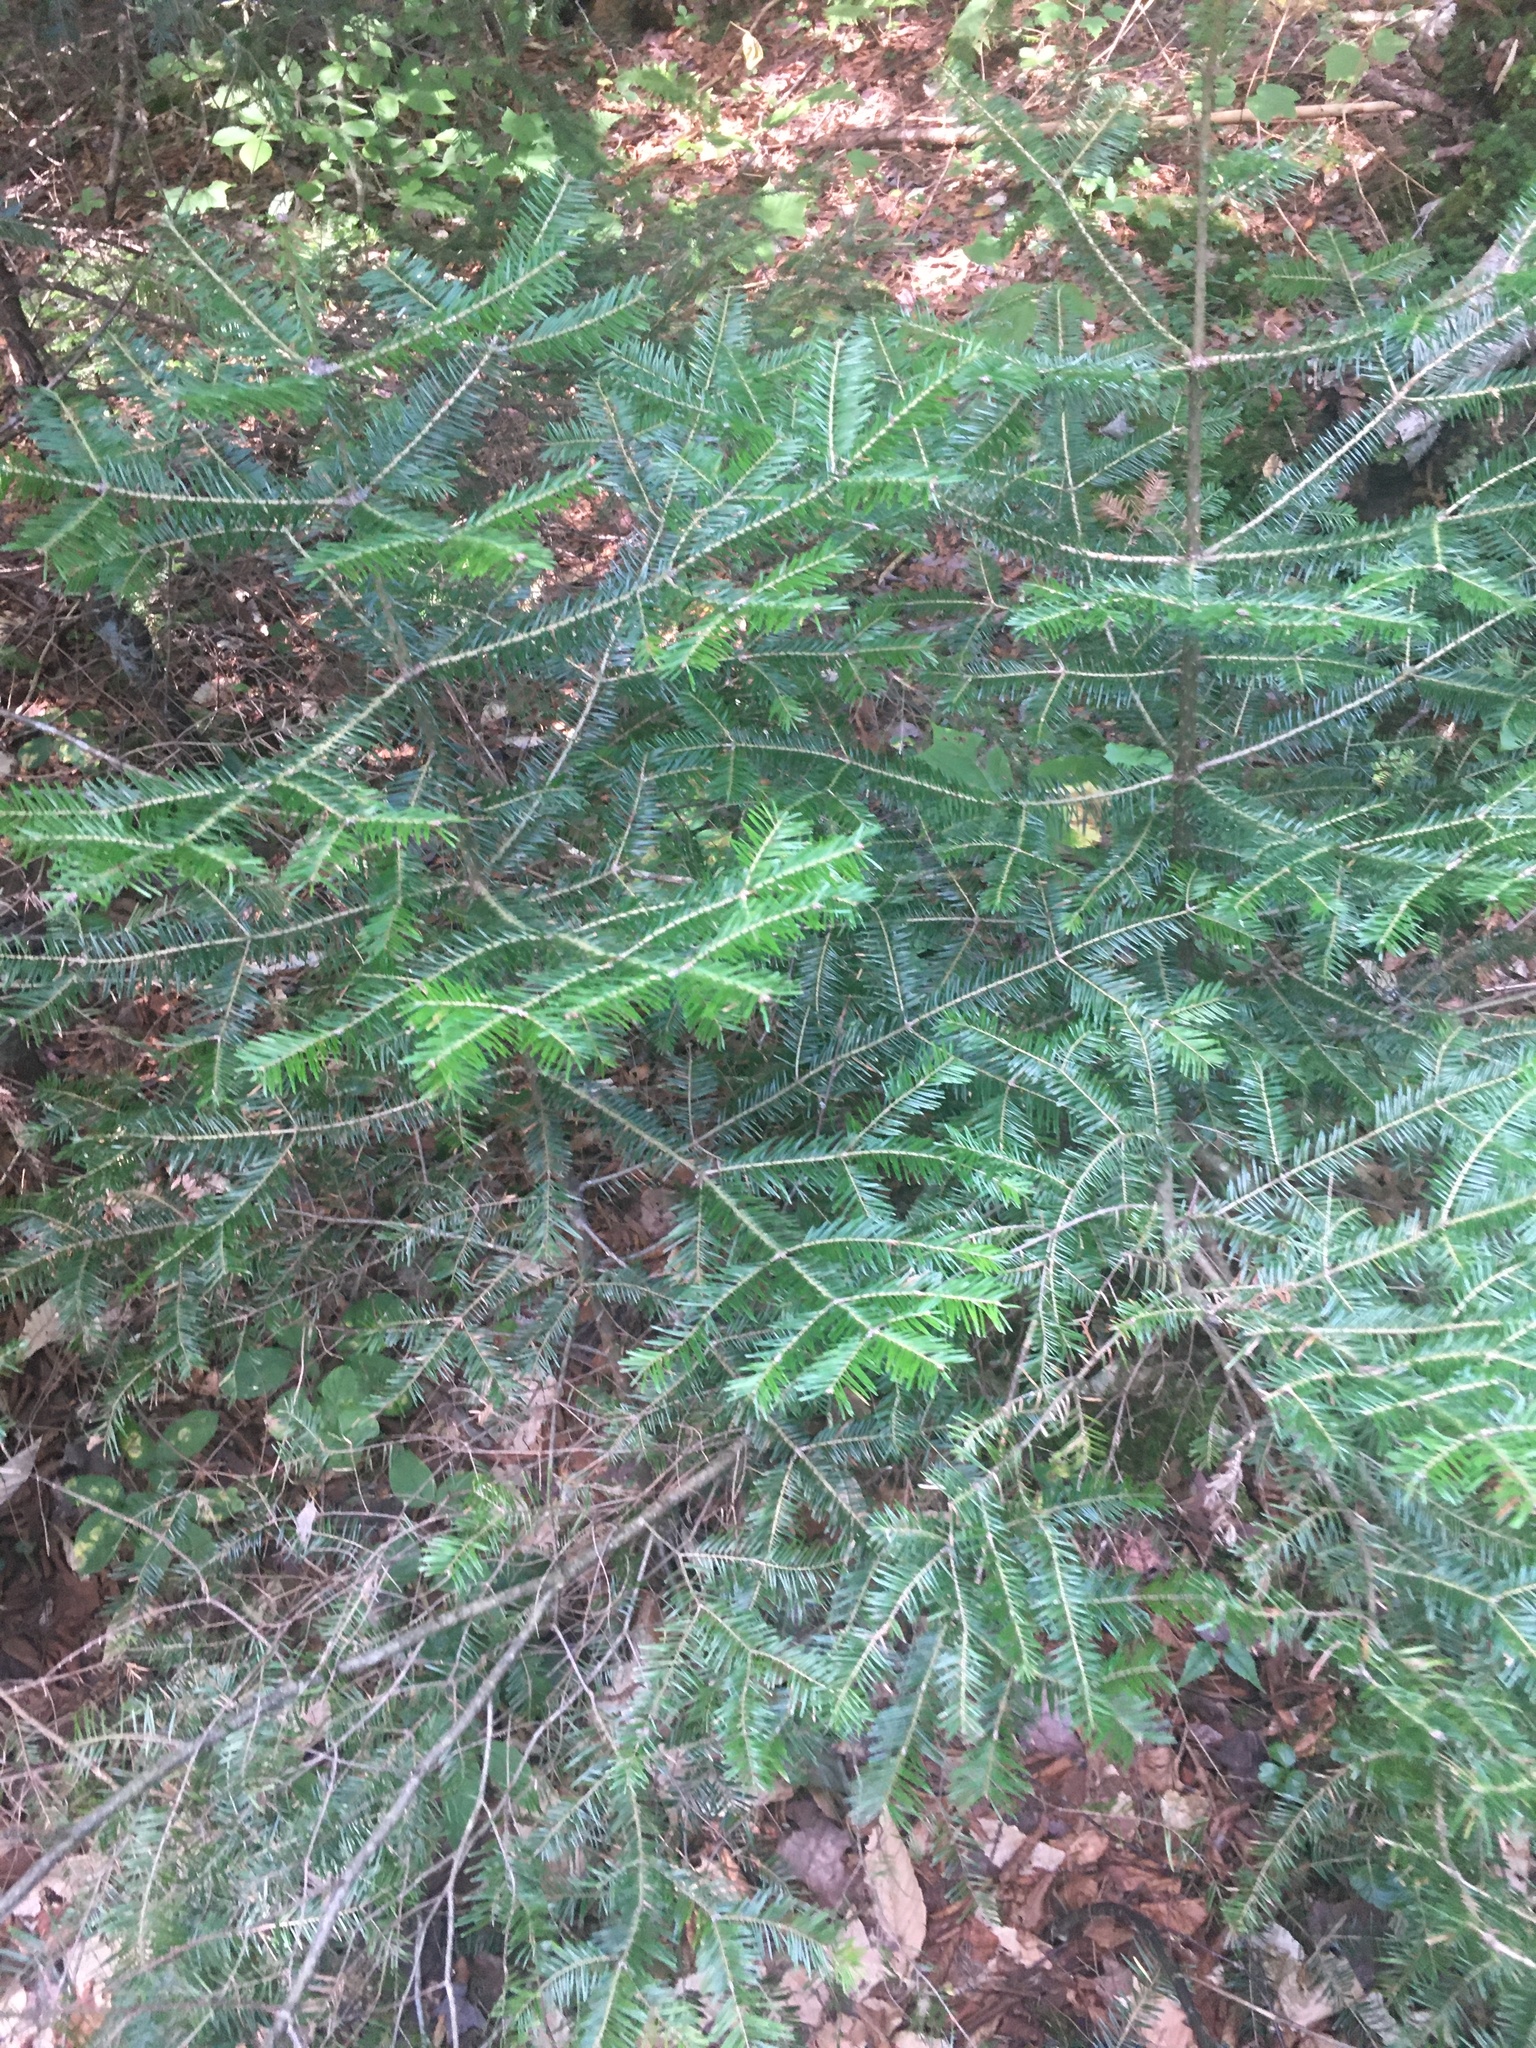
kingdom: Plantae
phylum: Tracheophyta
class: Pinopsida
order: Pinales
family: Pinaceae
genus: Abies
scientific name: Abies balsamea
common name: Balsam fir
